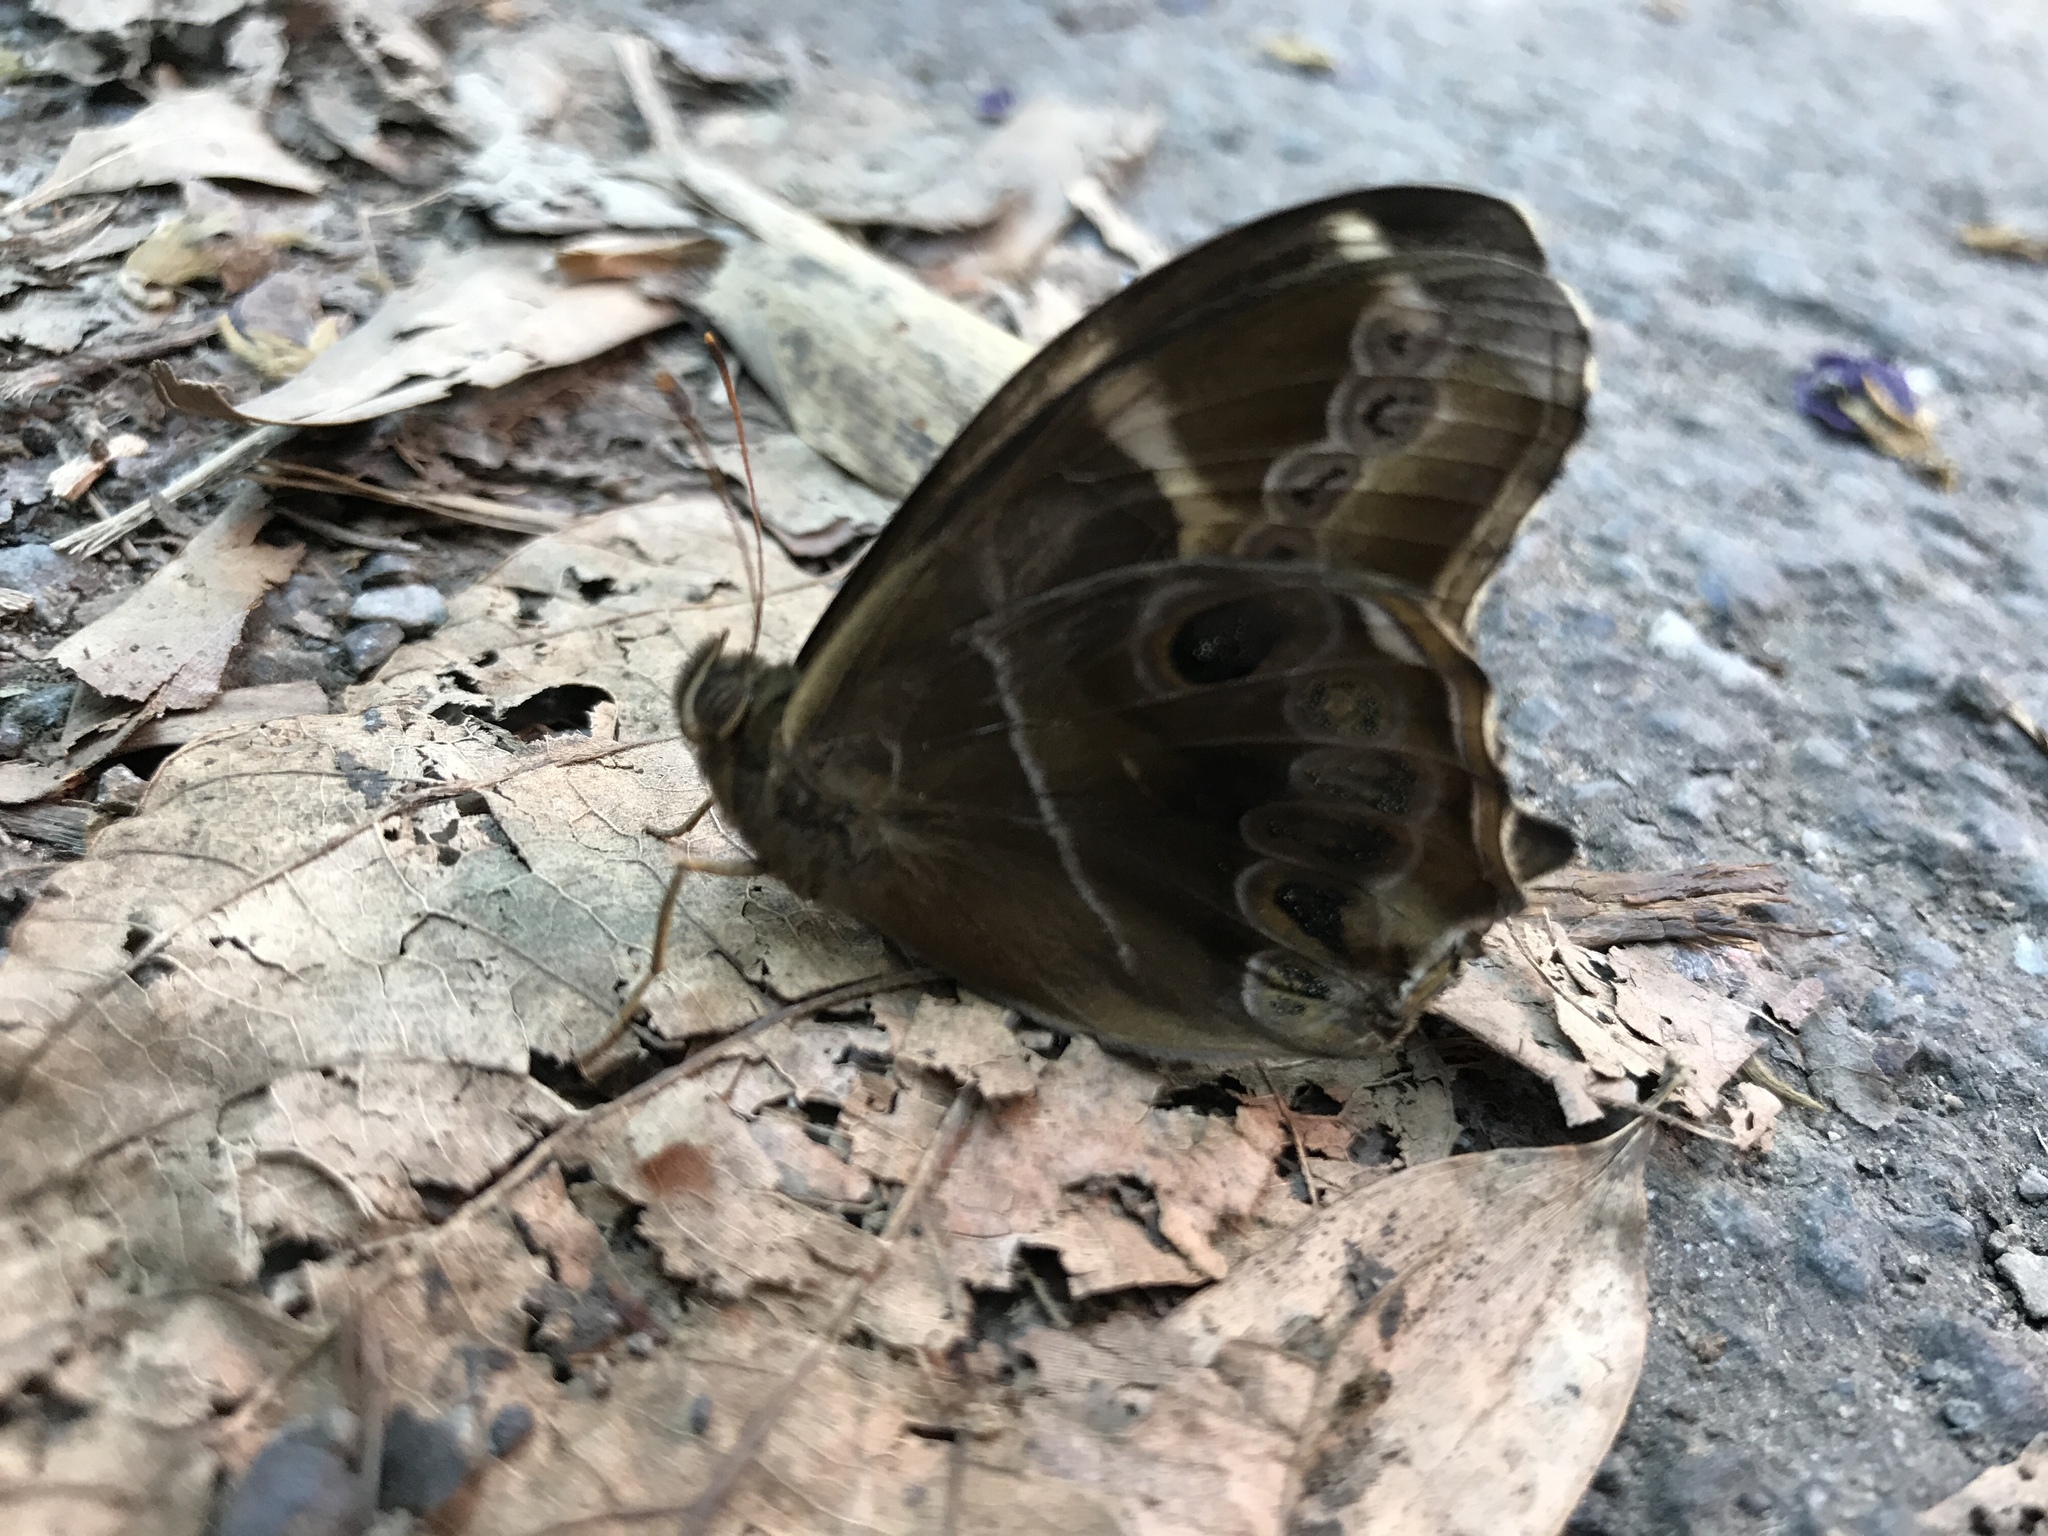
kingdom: Animalia
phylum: Arthropoda
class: Insecta
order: Lepidoptera
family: Nymphalidae
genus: Lethe
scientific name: Lethe europa
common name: Bamboo treebrown
